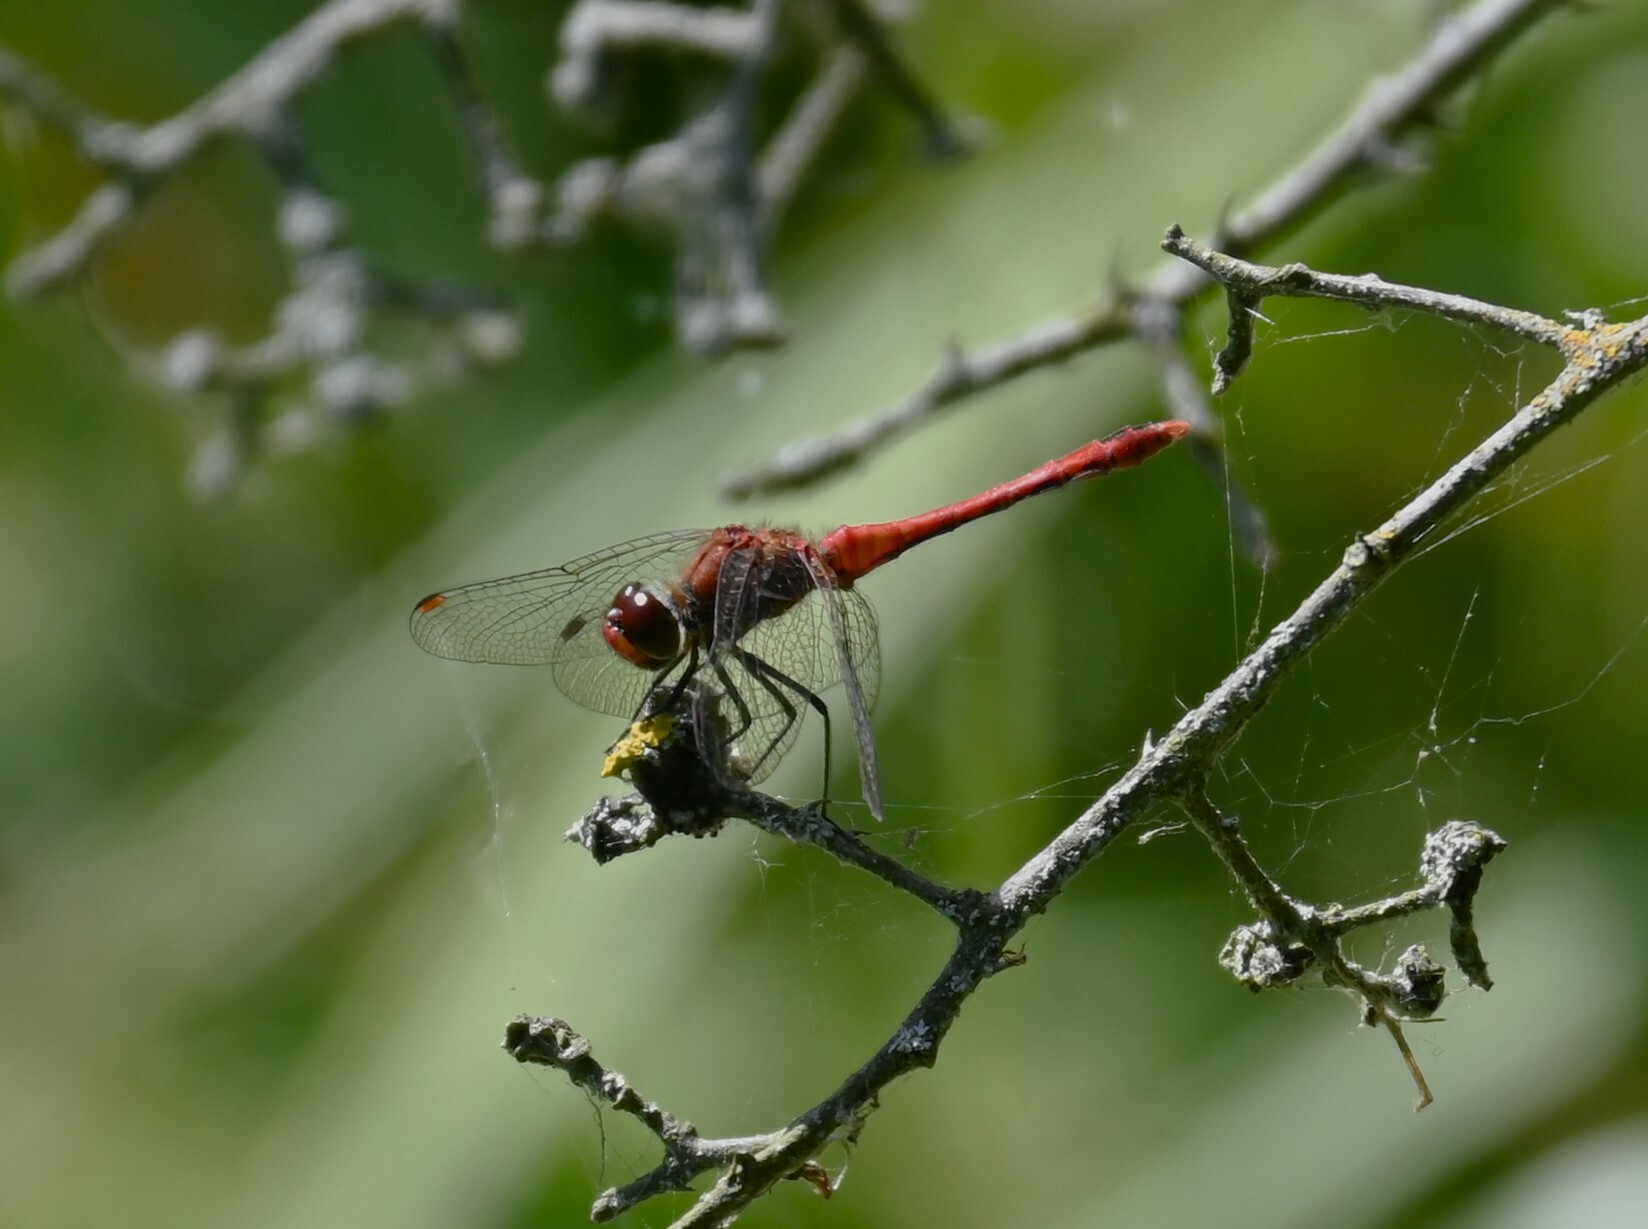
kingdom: Animalia
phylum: Arthropoda
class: Insecta
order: Odonata
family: Libellulidae
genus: Sympetrum
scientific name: Sympetrum sanguineum
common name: Ruddy darter
